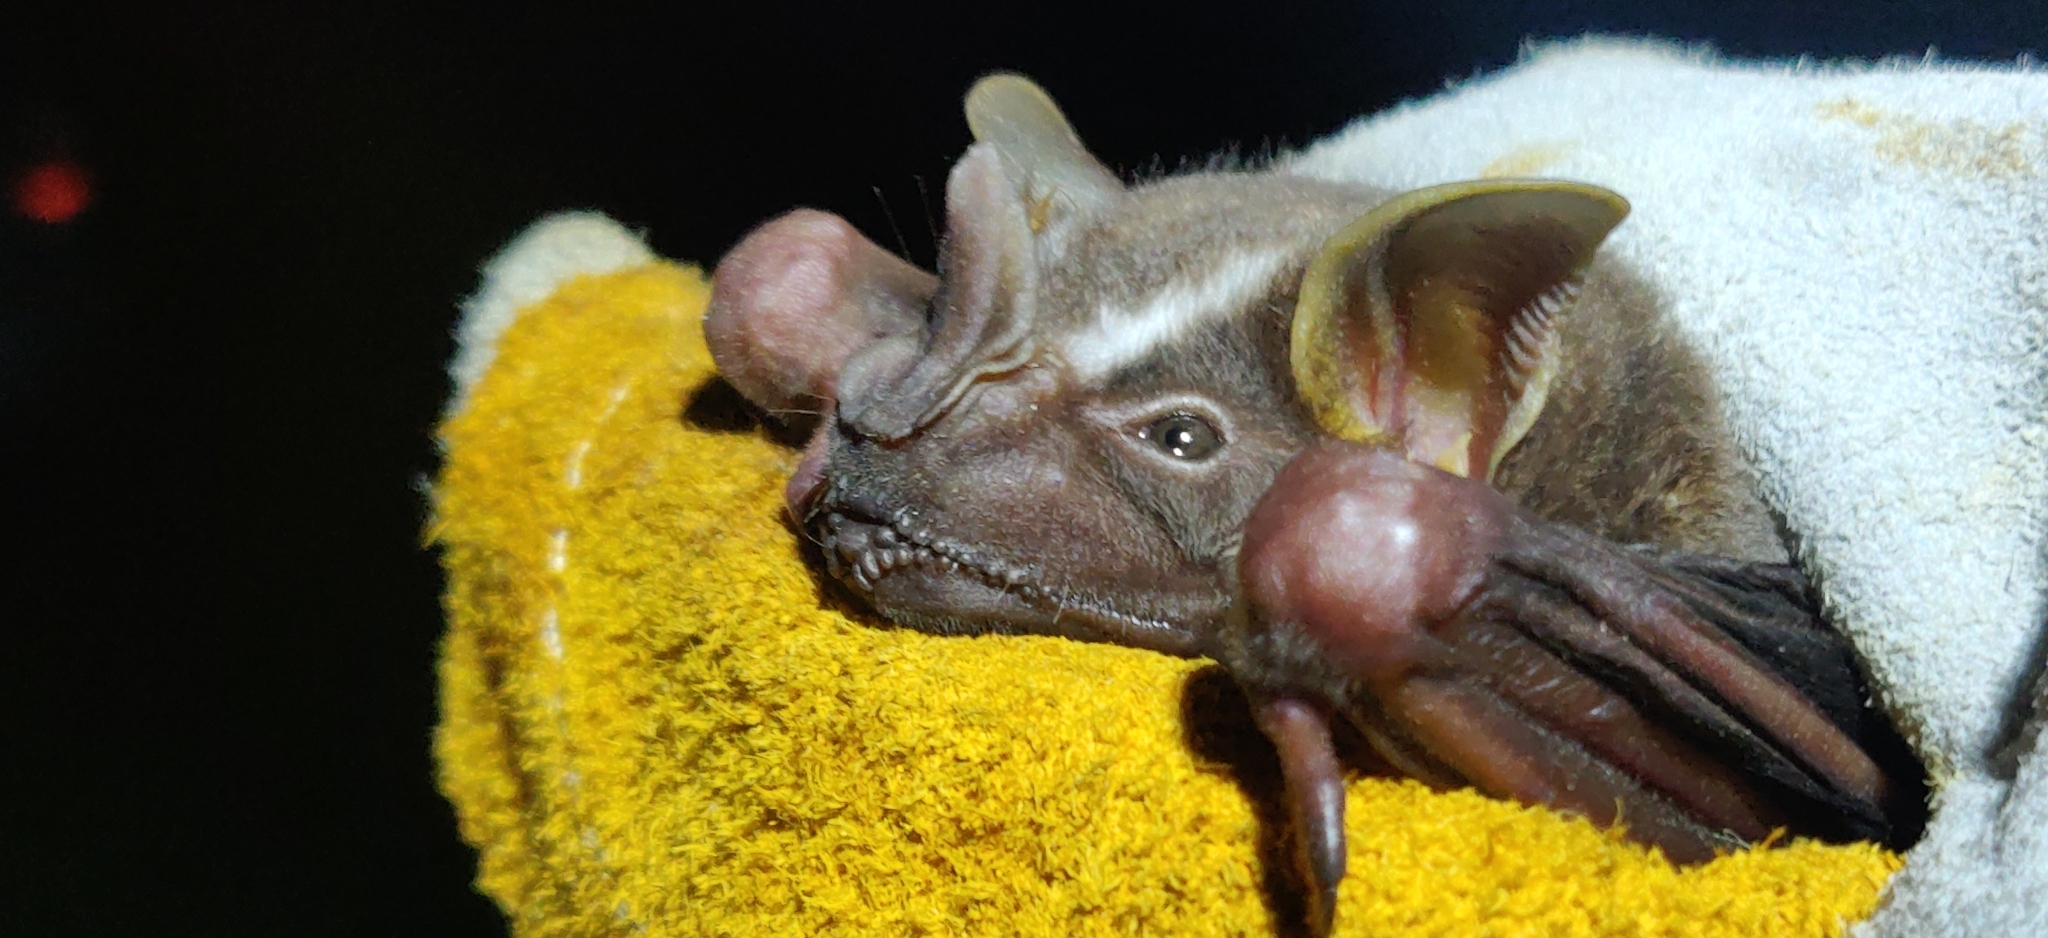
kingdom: Animalia
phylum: Chordata
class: Mammalia
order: Chiroptera
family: Phyllostomidae
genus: Artibeus
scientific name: Artibeus lituratus
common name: Great fruit-eating bat
